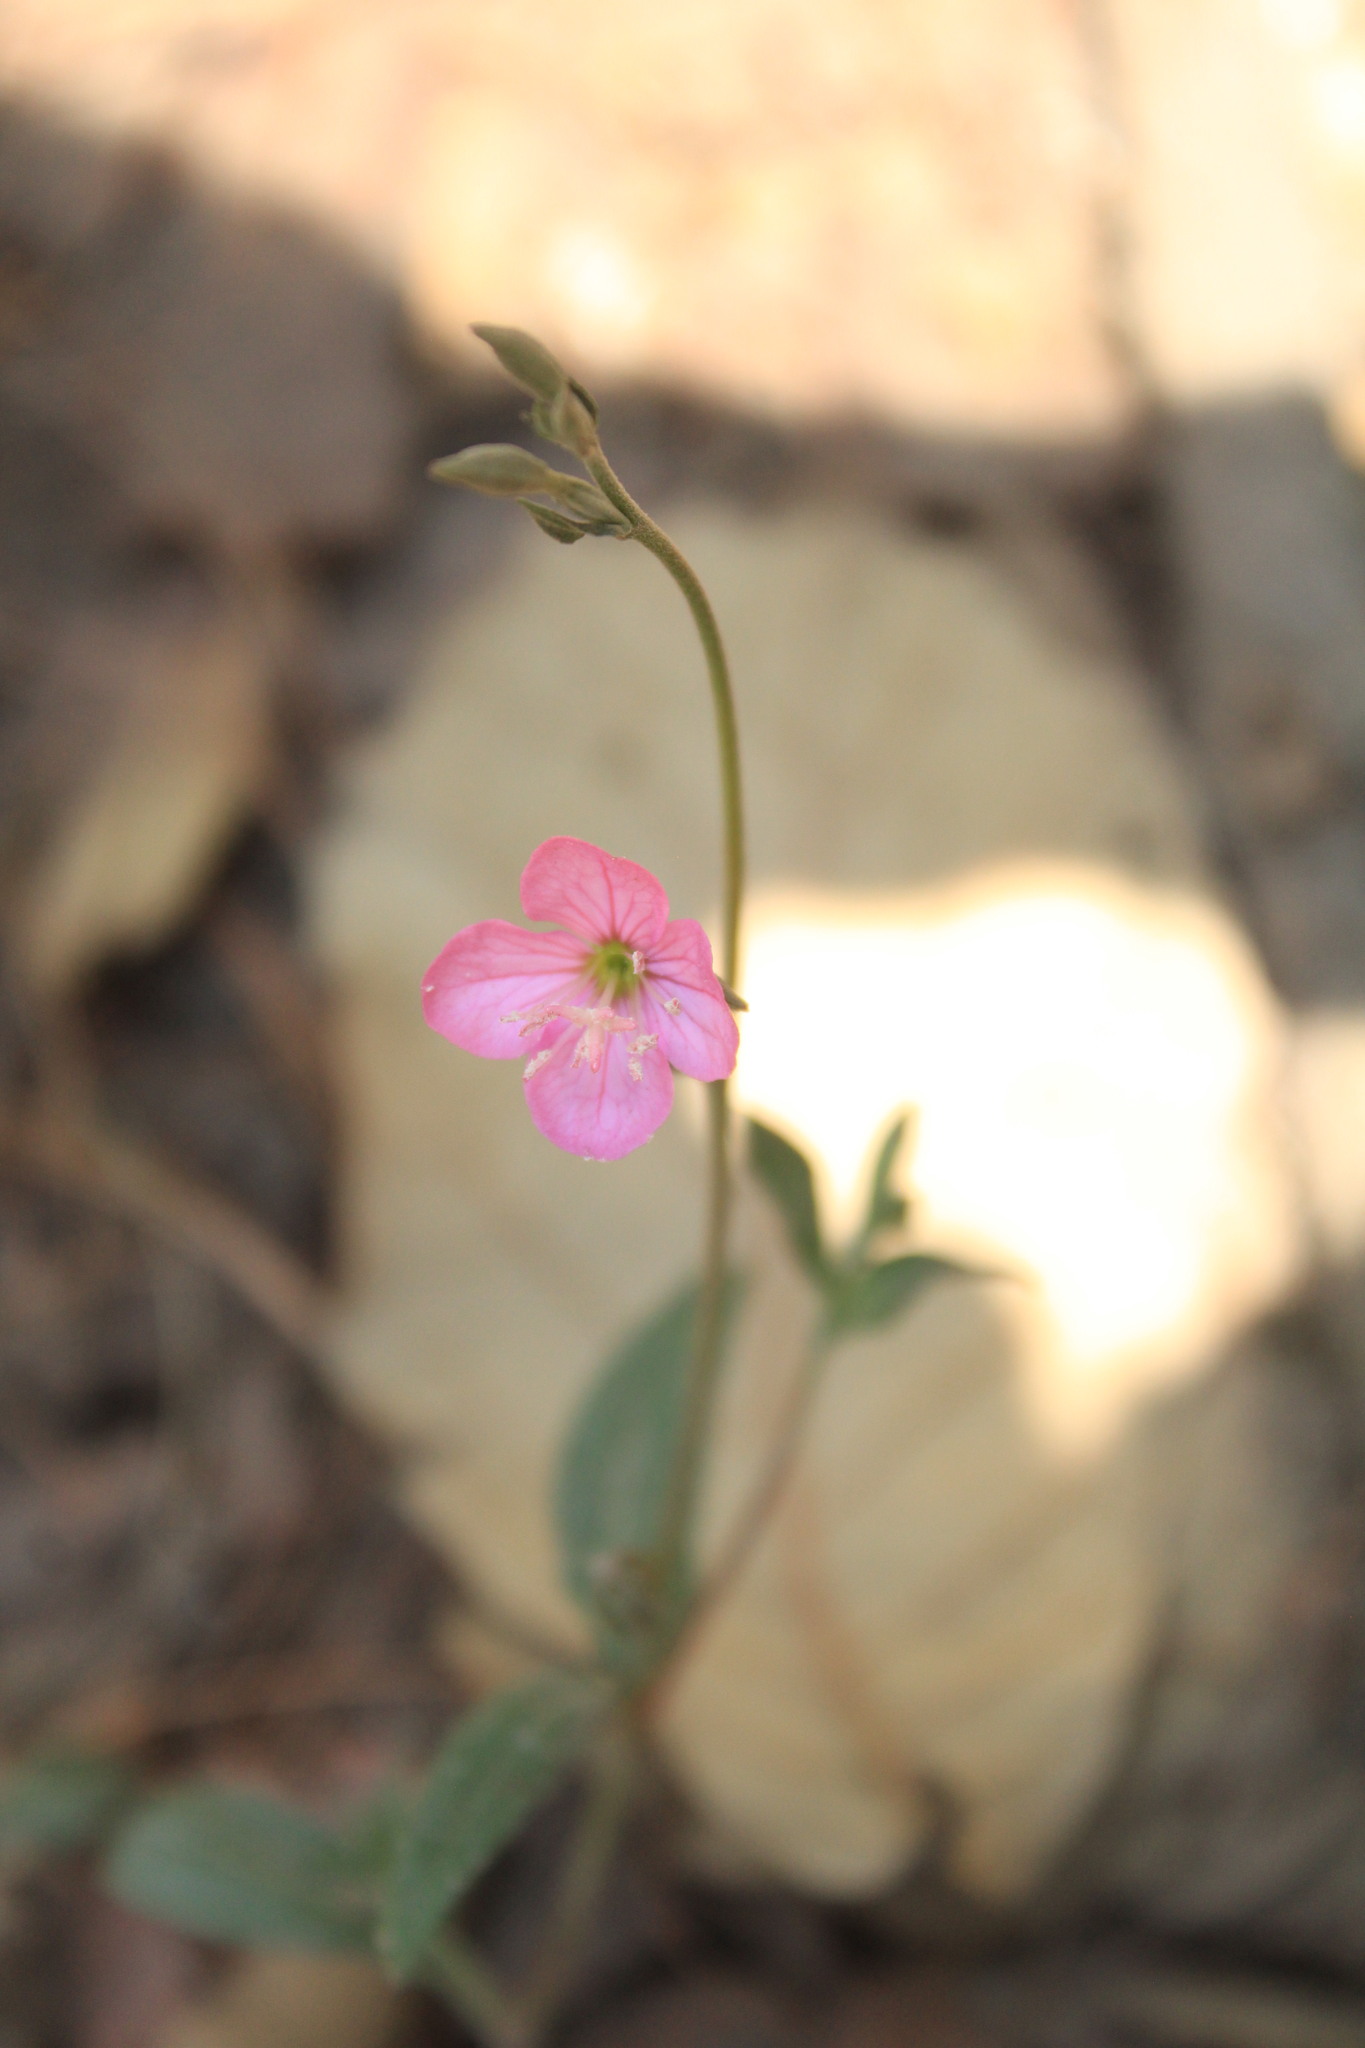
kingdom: Plantae
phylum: Tracheophyta
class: Magnoliopsida
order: Myrtales
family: Onagraceae
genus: Oenothera
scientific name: Oenothera rosea
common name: Rosy evening-primrose
